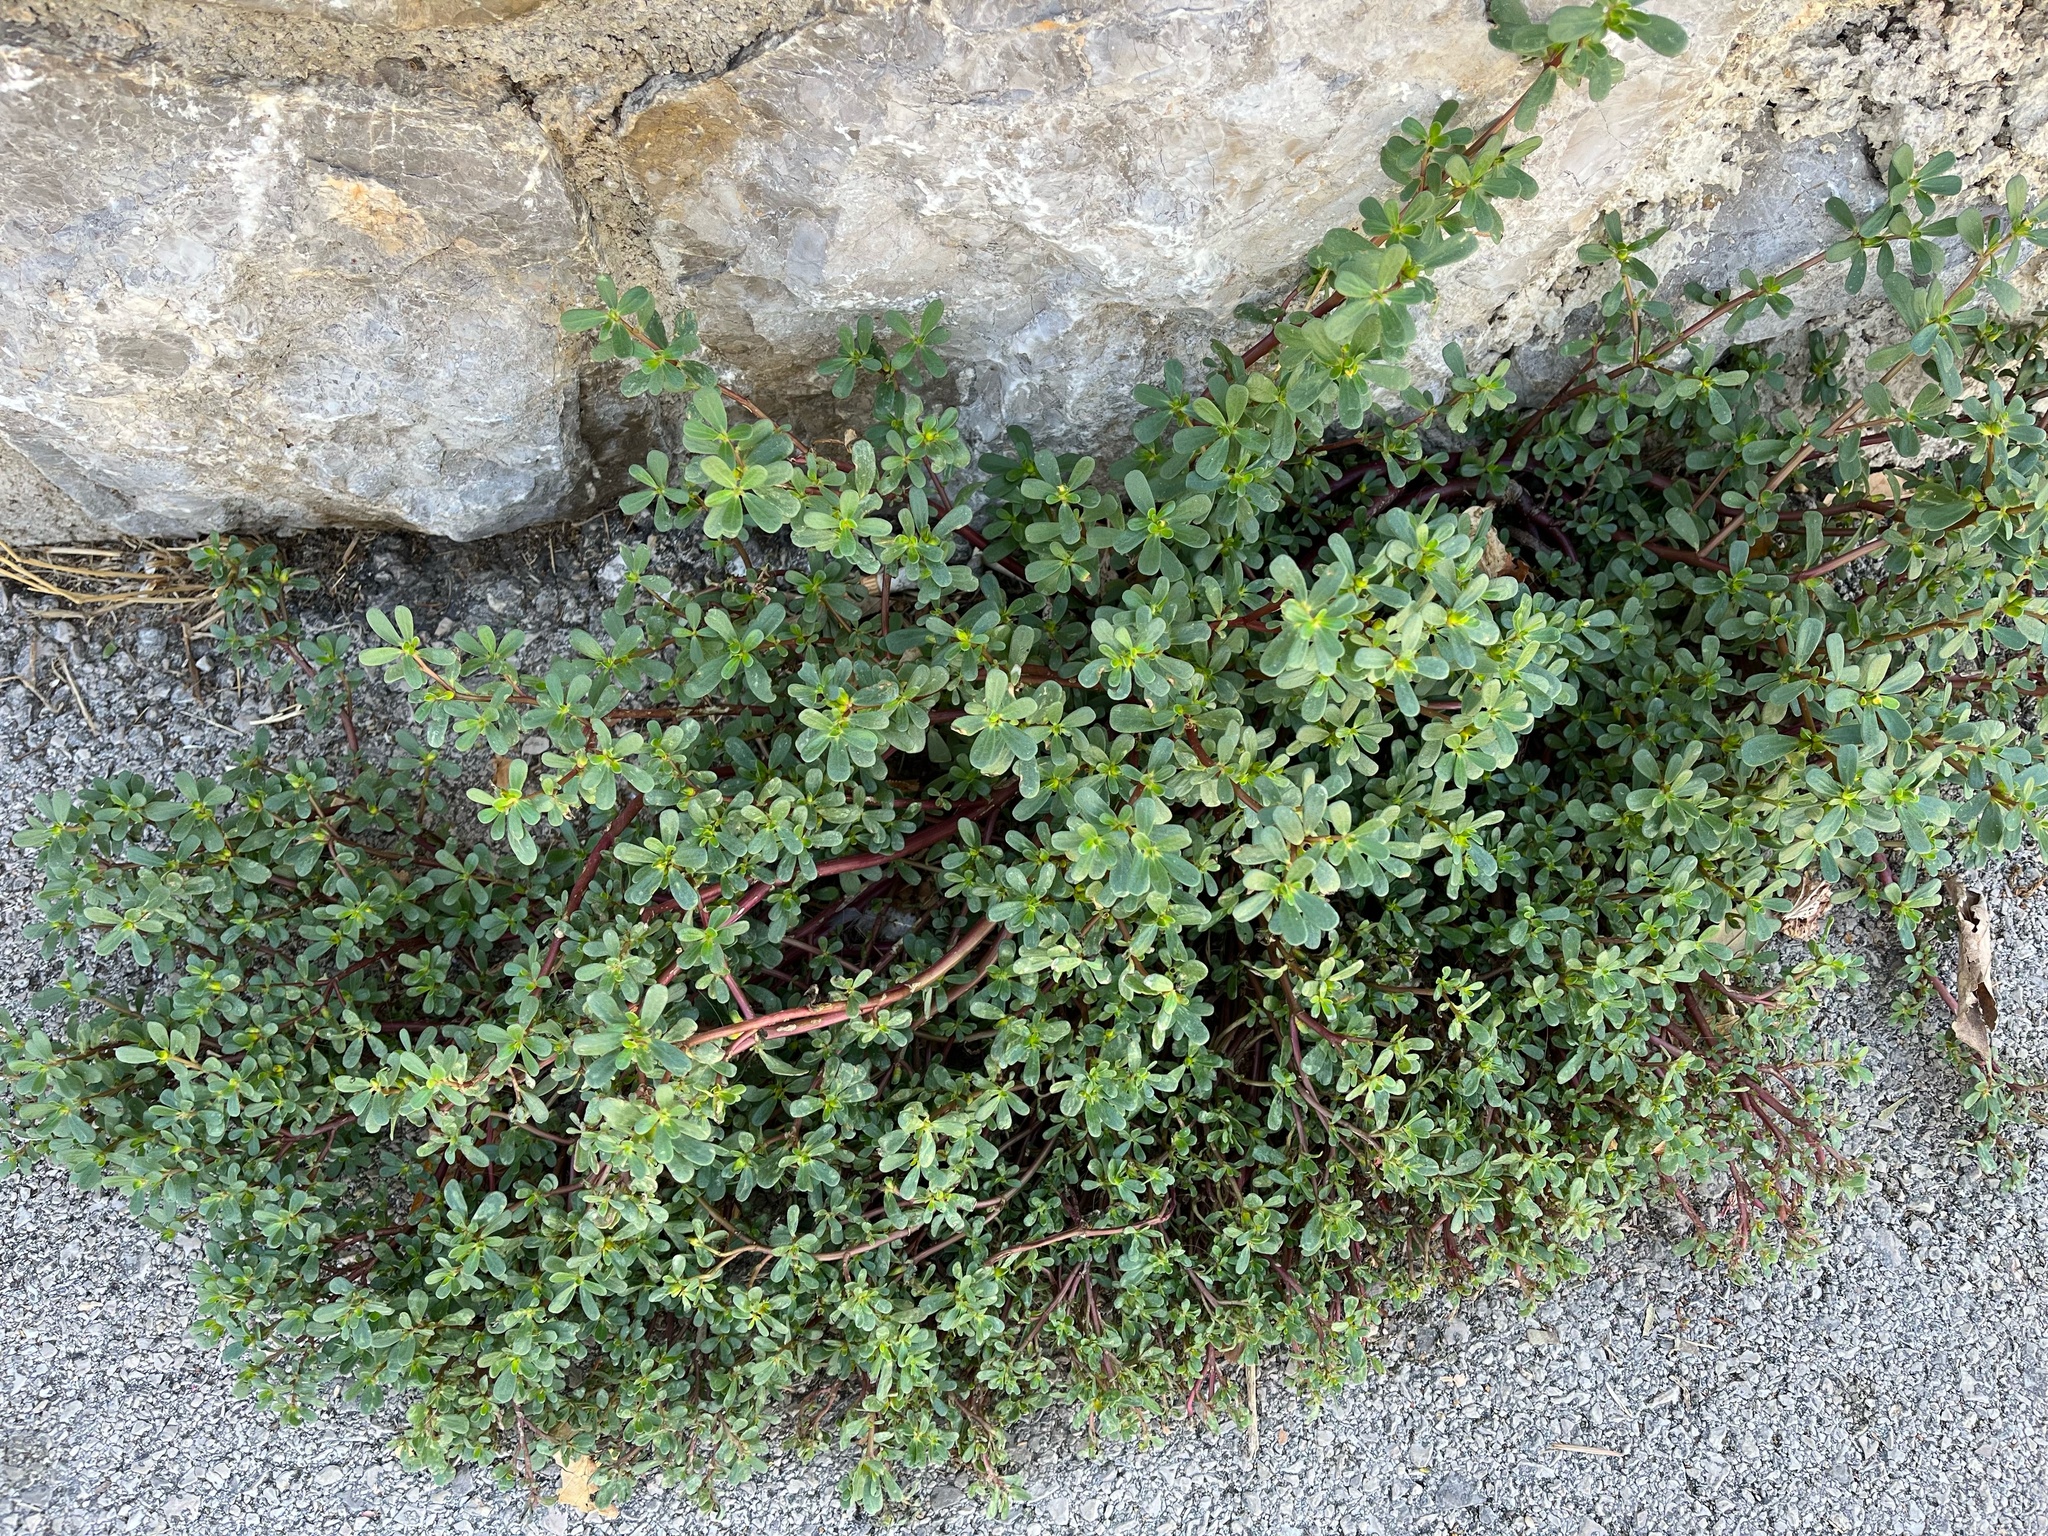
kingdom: Plantae
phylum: Tracheophyta
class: Magnoliopsida
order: Caryophyllales
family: Portulacaceae
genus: Portulaca
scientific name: Portulaca oleracea
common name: Common purslane
